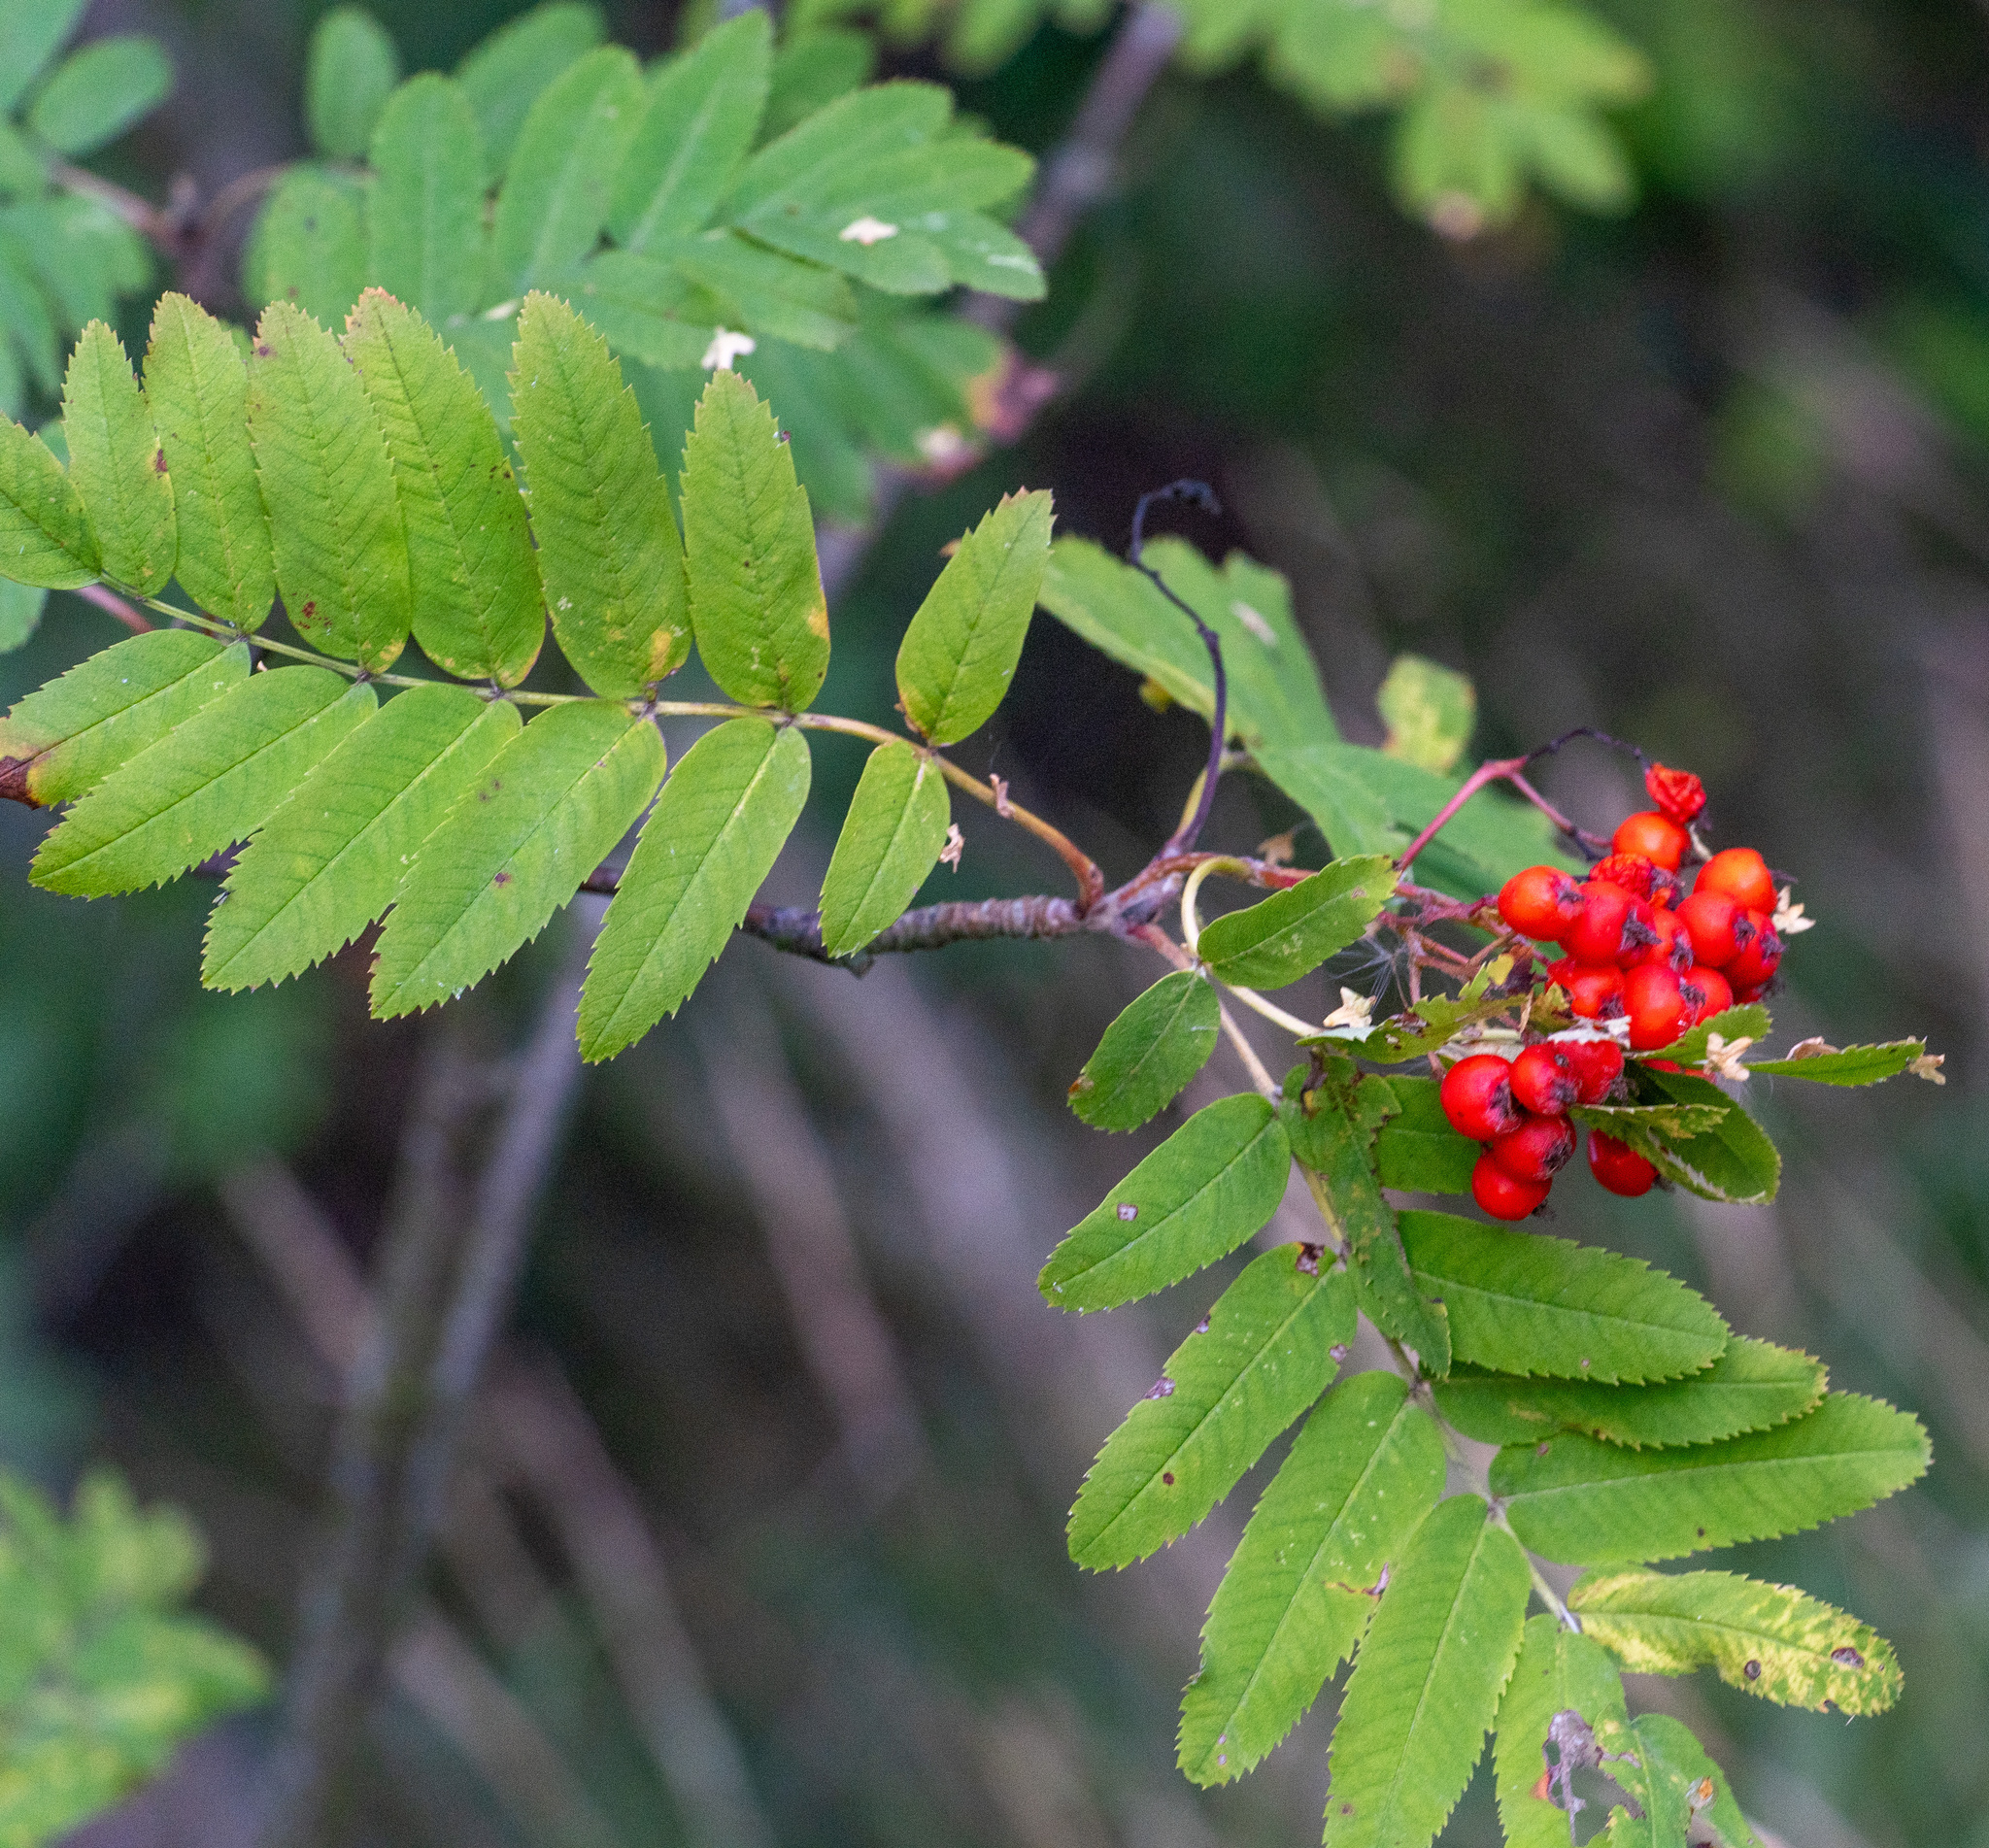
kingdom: Plantae
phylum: Tracheophyta
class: Magnoliopsida
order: Rosales
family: Rosaceae
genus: Sorbus
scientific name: Sorbus aucuparia
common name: Rowan
